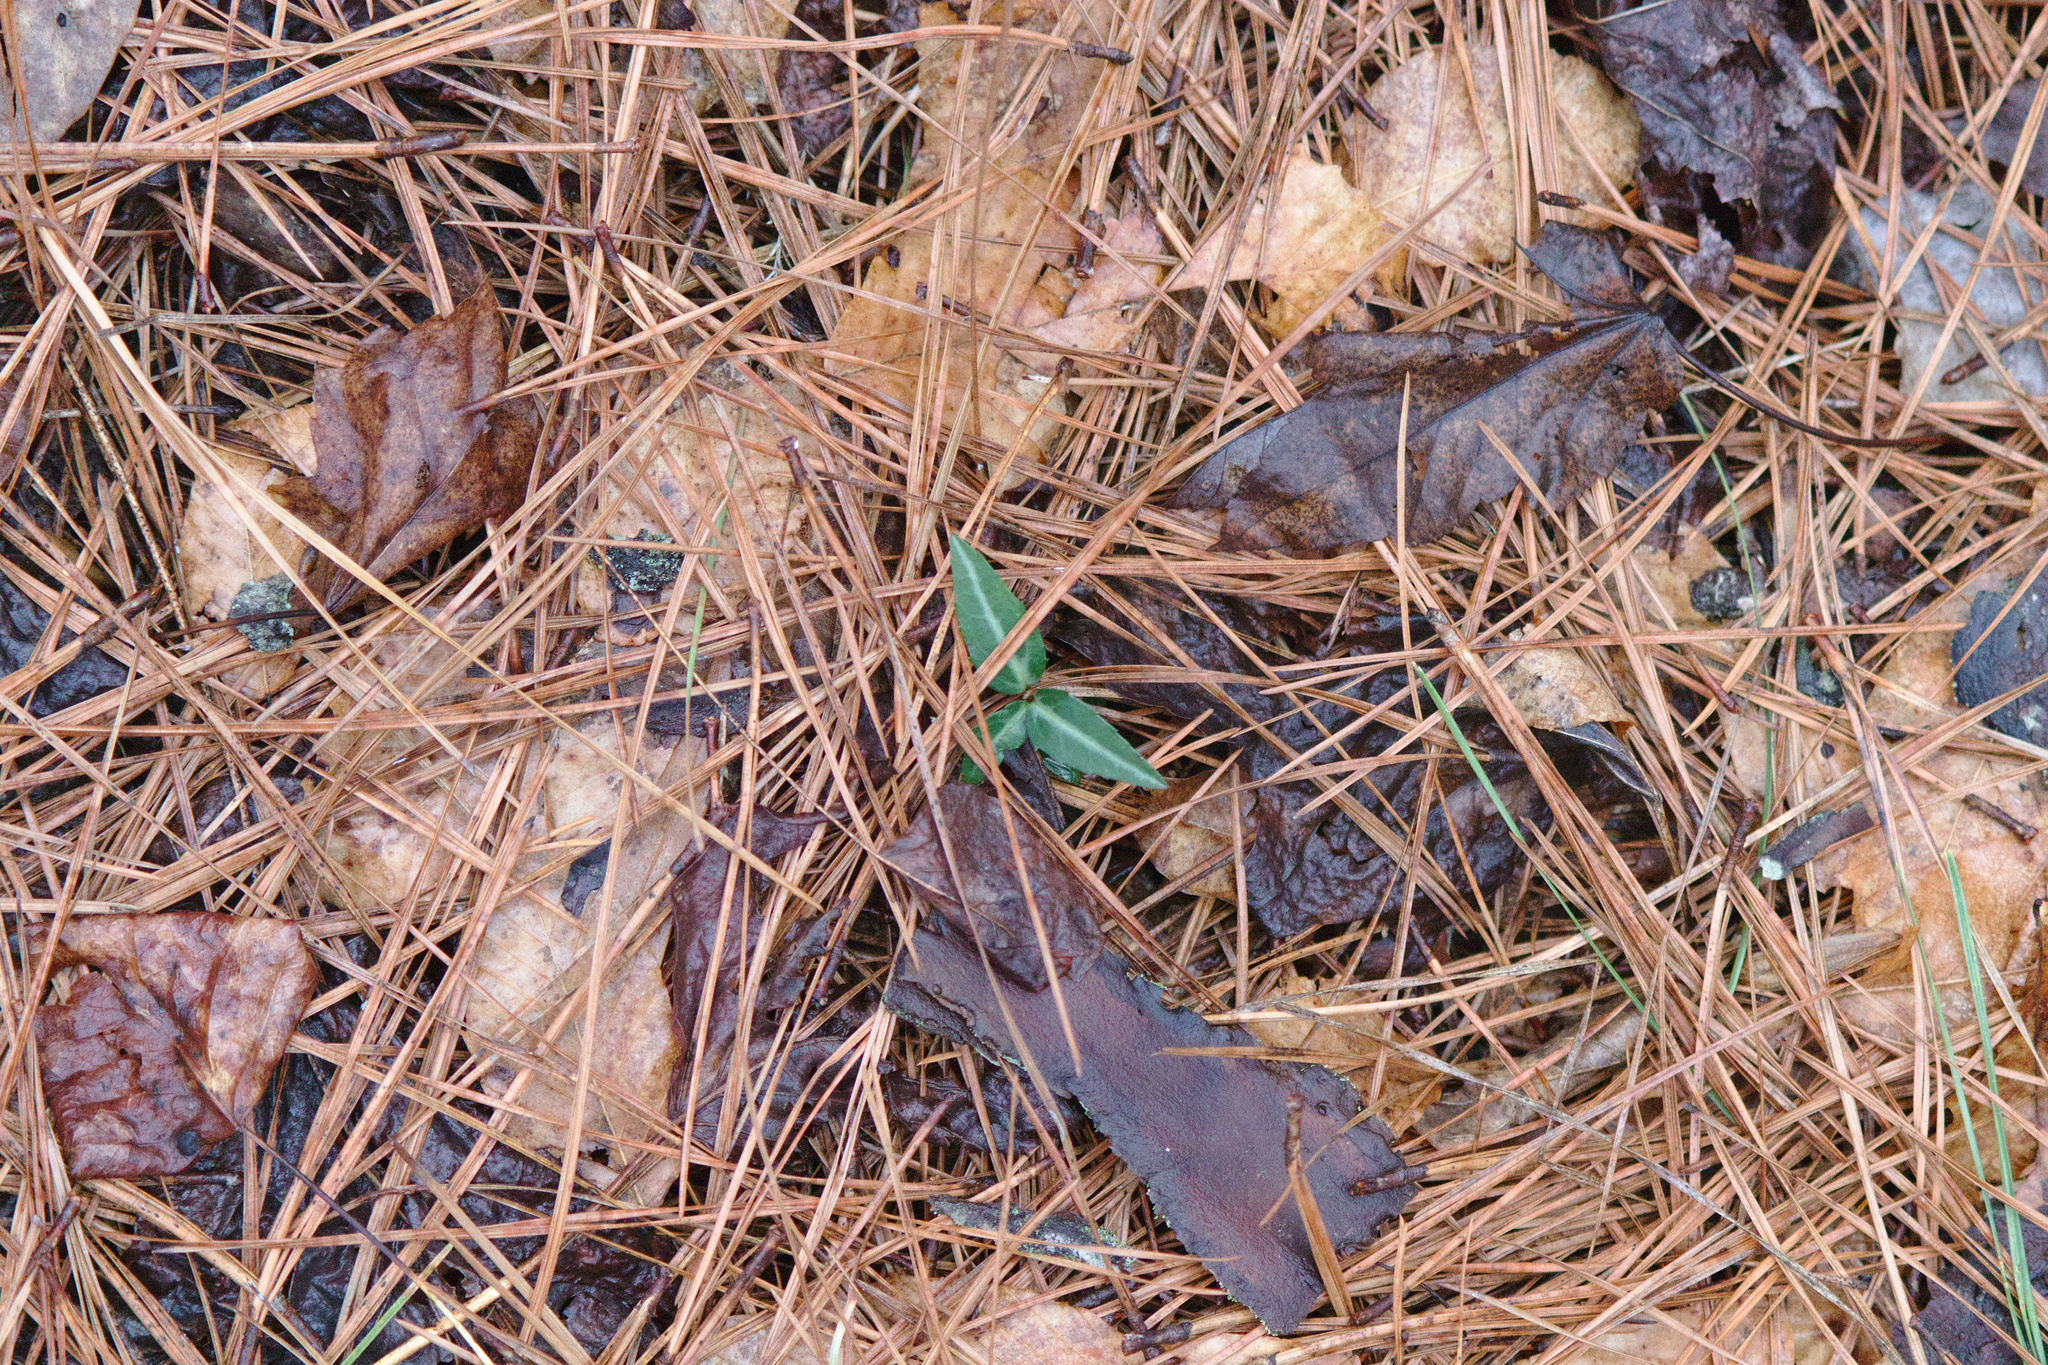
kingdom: Plantae
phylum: Tracheophyta
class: Magnoliopsida
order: Ericales
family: Ericaceae
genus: Chimaphila
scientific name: Chimaphila maculata
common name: Spotted pipsissewa
